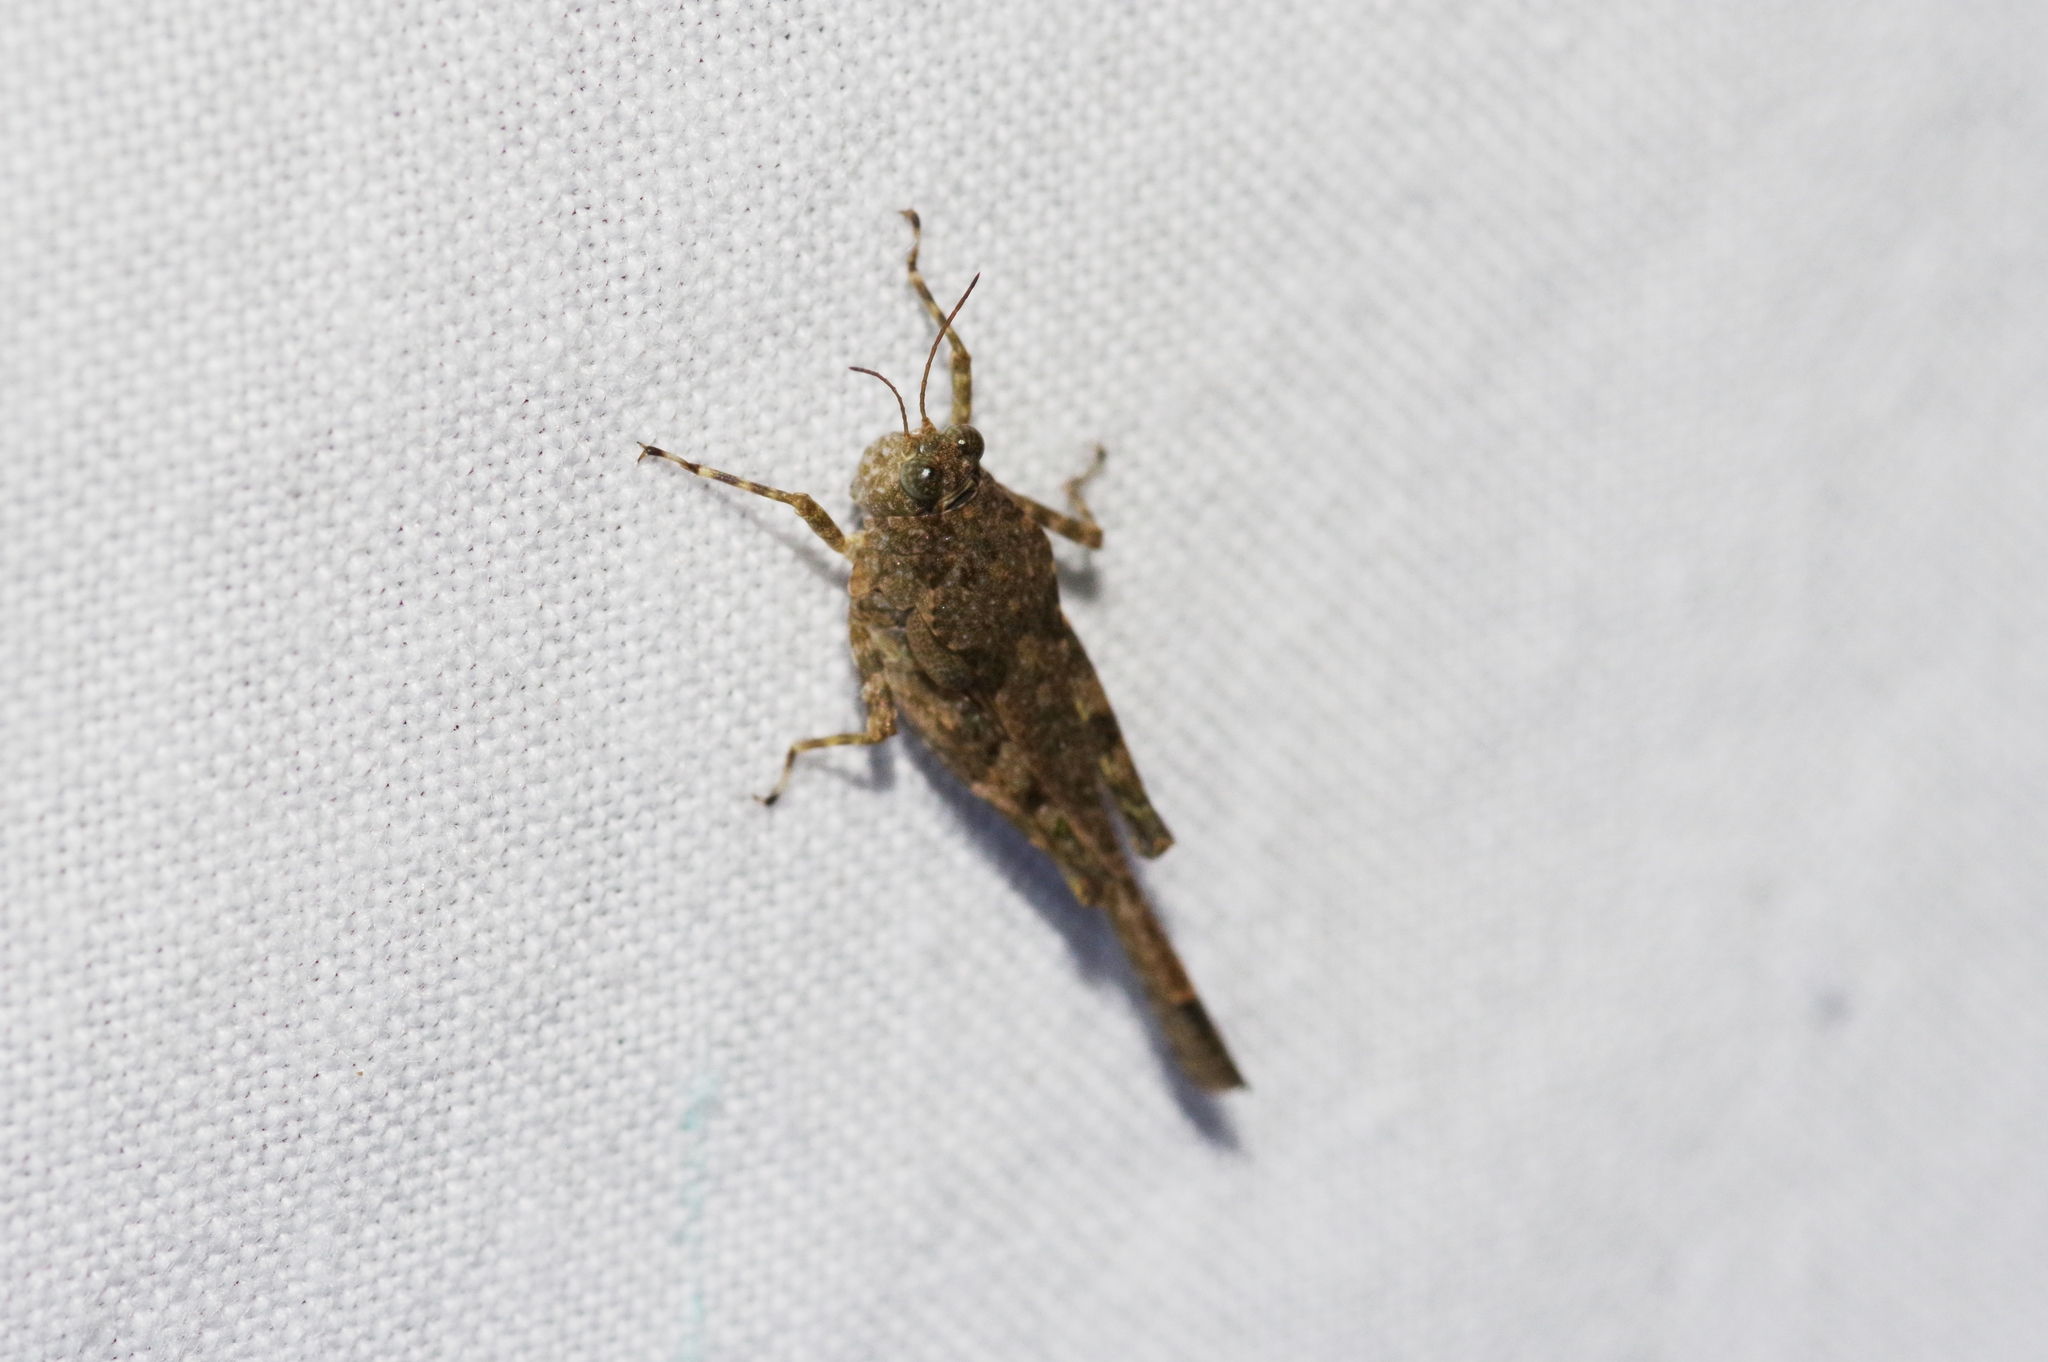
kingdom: Animalia
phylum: Arthropoda
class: Insecta
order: Orthoptera
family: Tetrigidae
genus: Paratettix
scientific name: Paratettix histricus
